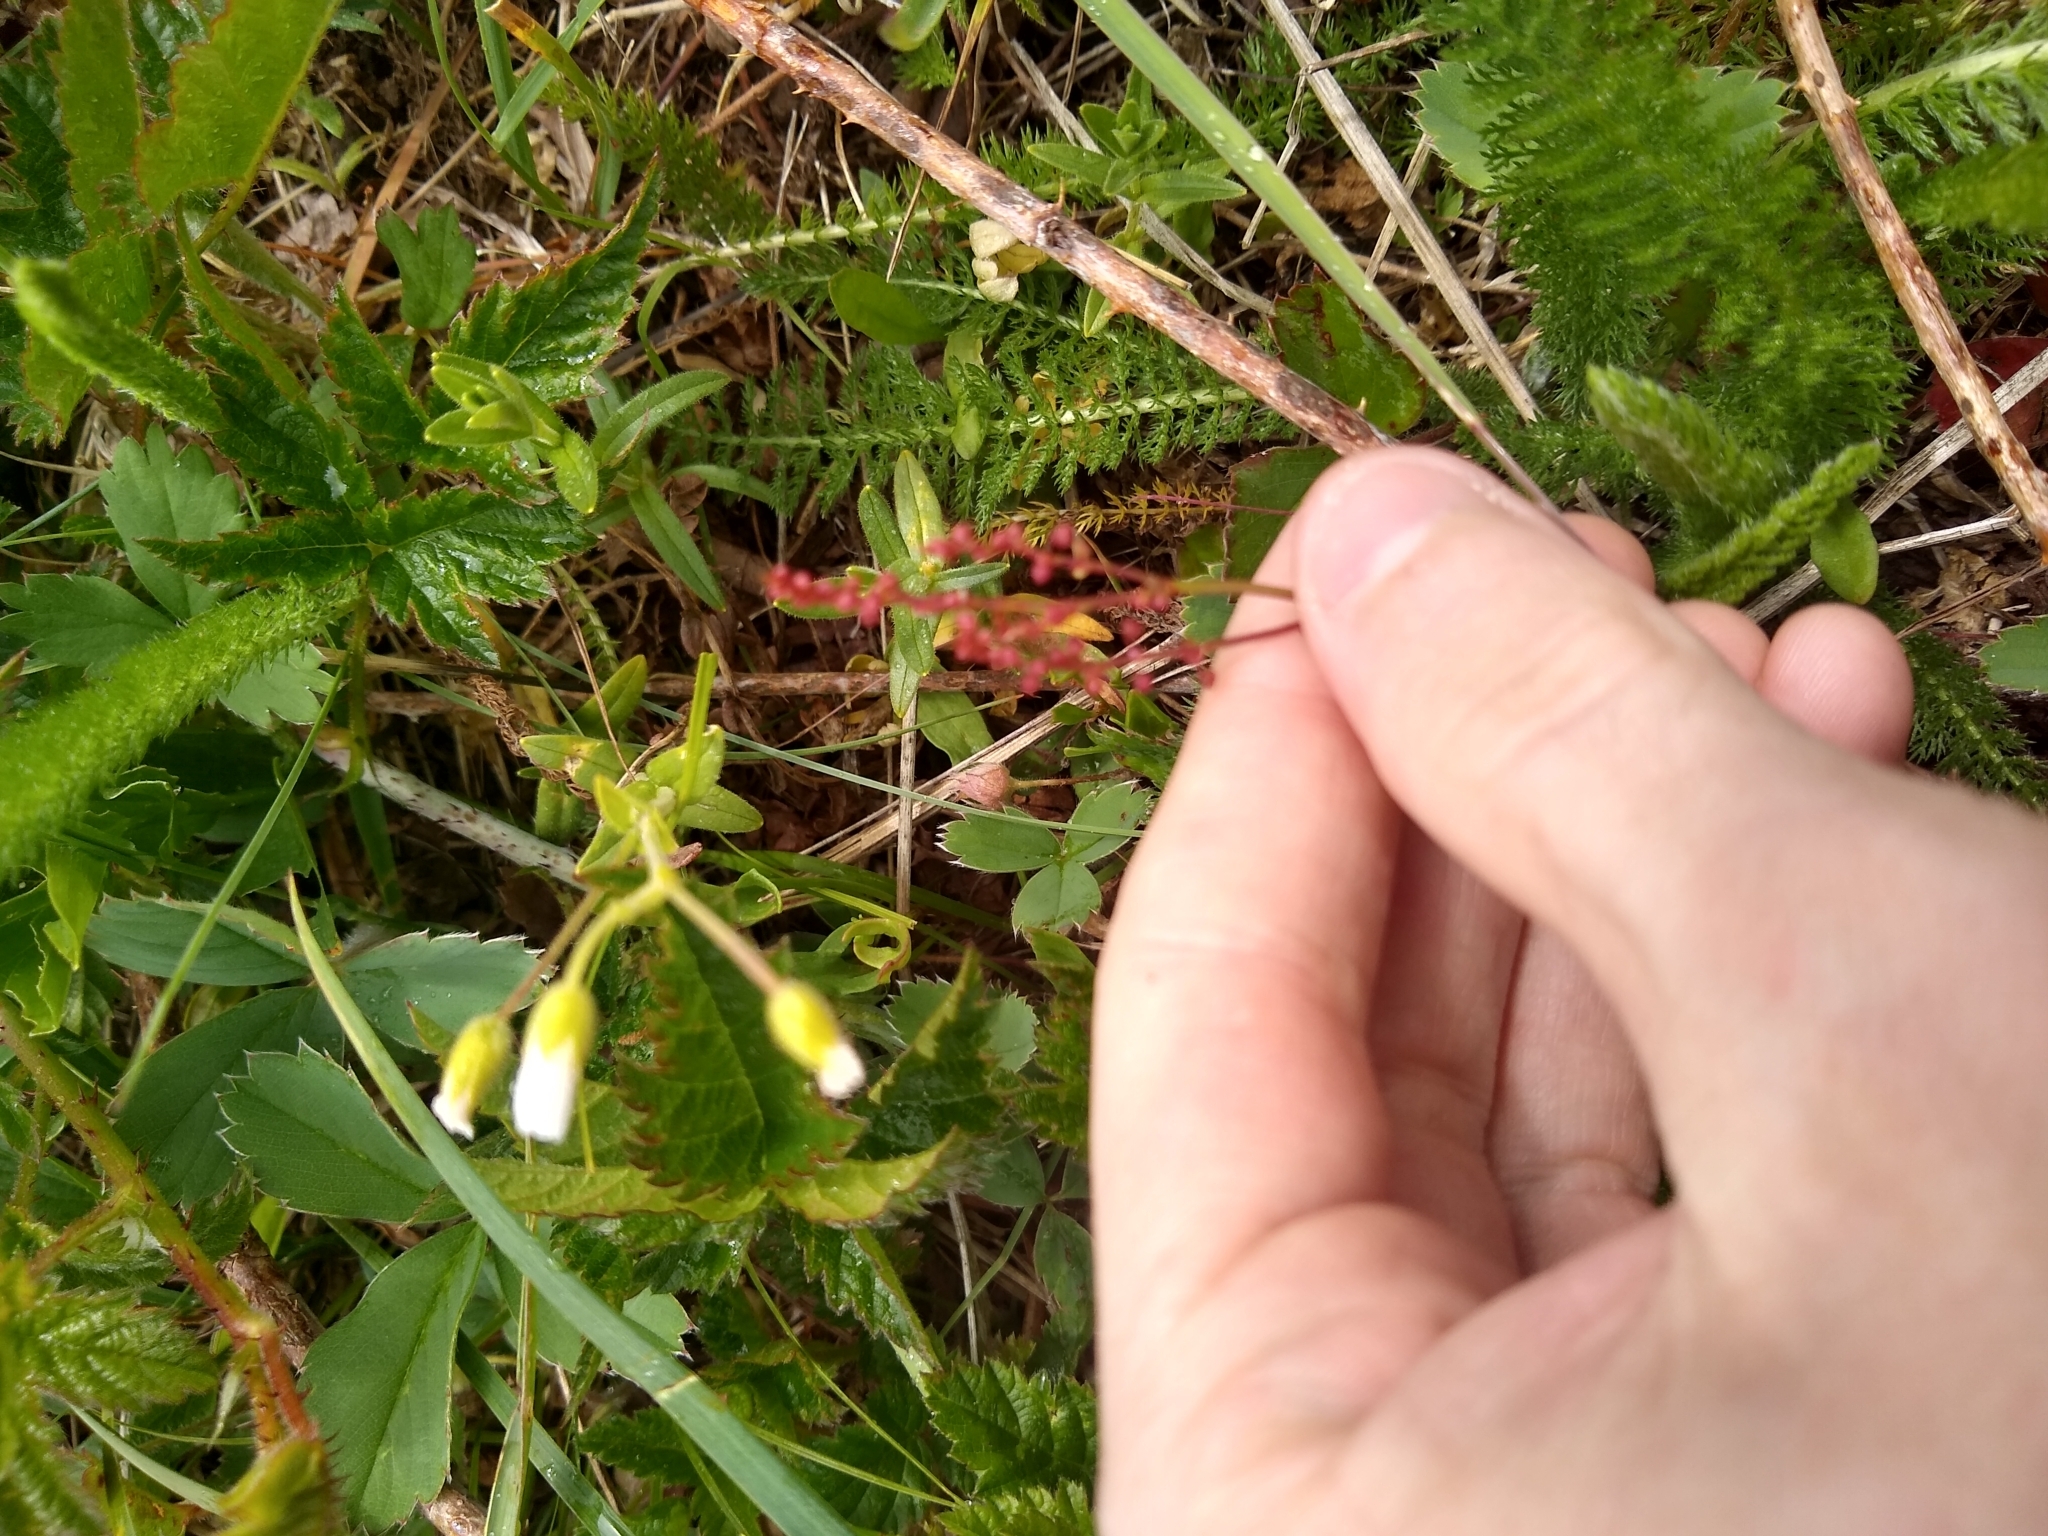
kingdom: Plantae
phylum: Tracheophyta
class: Magnoliopsida
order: Caryophyllales
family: Polygonaceae
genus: Rumex
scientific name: Rumex acetosella
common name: Common sheep sorrel
